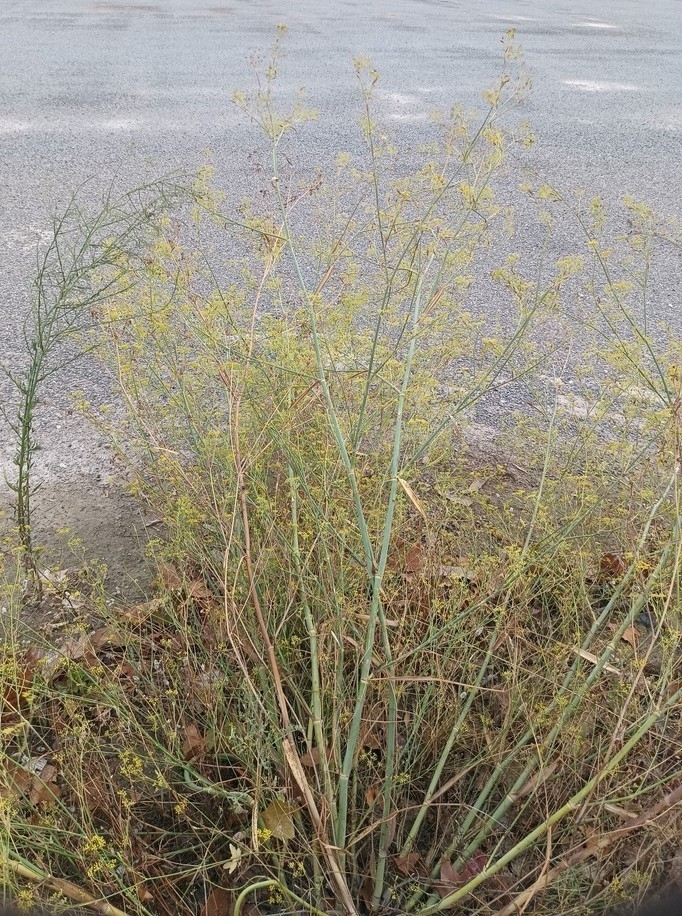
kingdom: Plantae
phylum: Tracheophyta
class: Magnoliopsida
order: Apiales
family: Apiaceae
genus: Foeniculum
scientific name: Foeniculum vulgare
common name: Fennel
